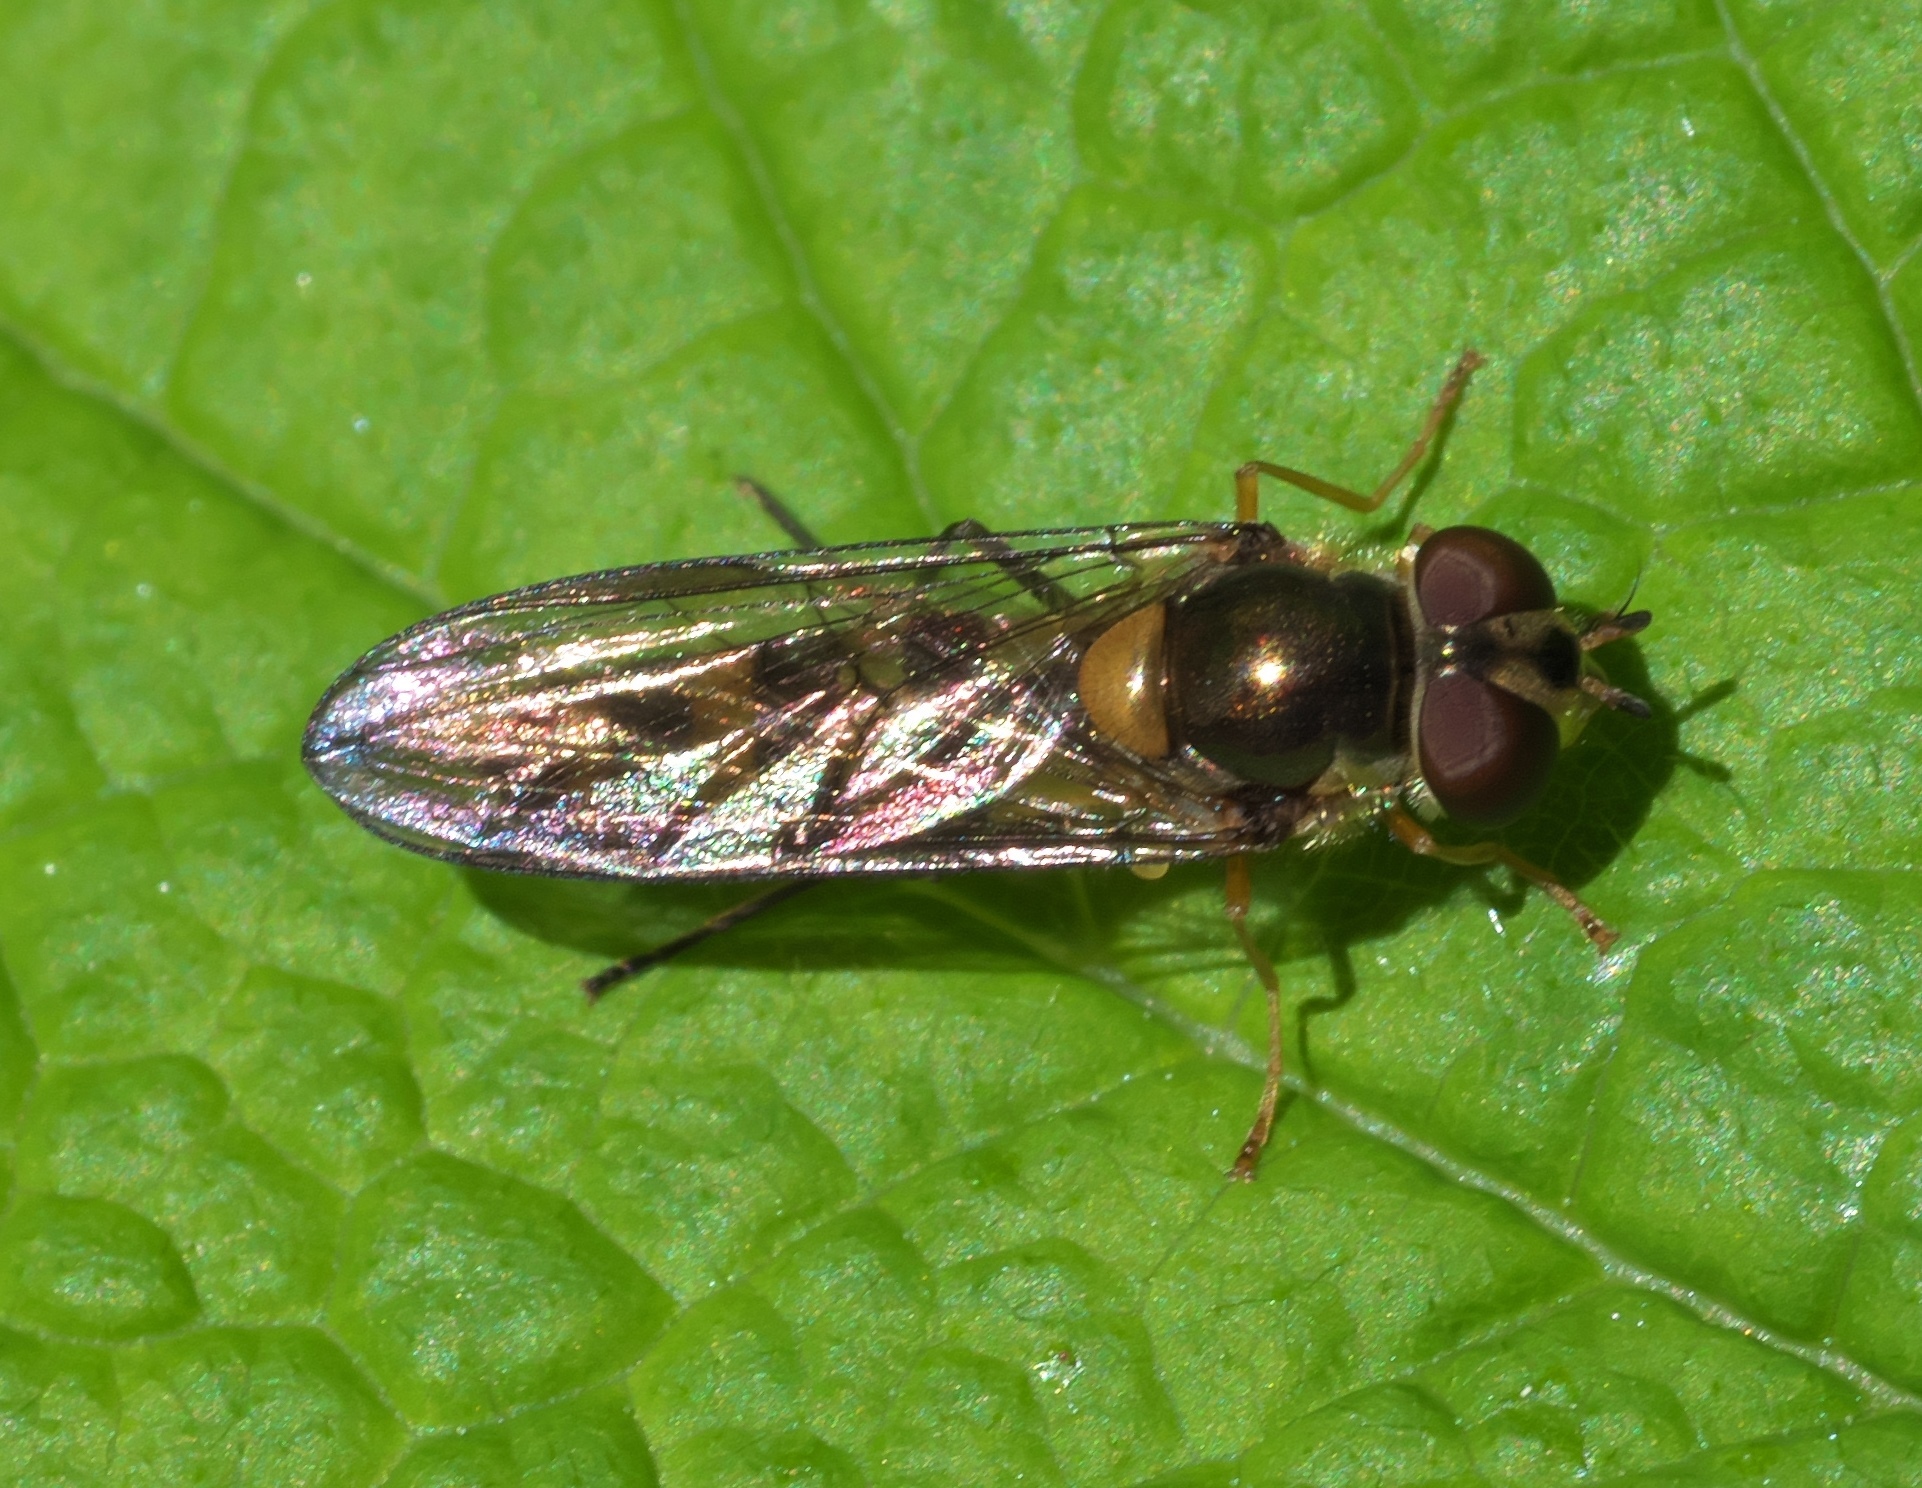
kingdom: Animalia
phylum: Arthropoda
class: Insecta
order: Diptera
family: Syrphidae
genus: Meliscaeva
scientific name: Meliscaeva cinctella
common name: American thintail fly
